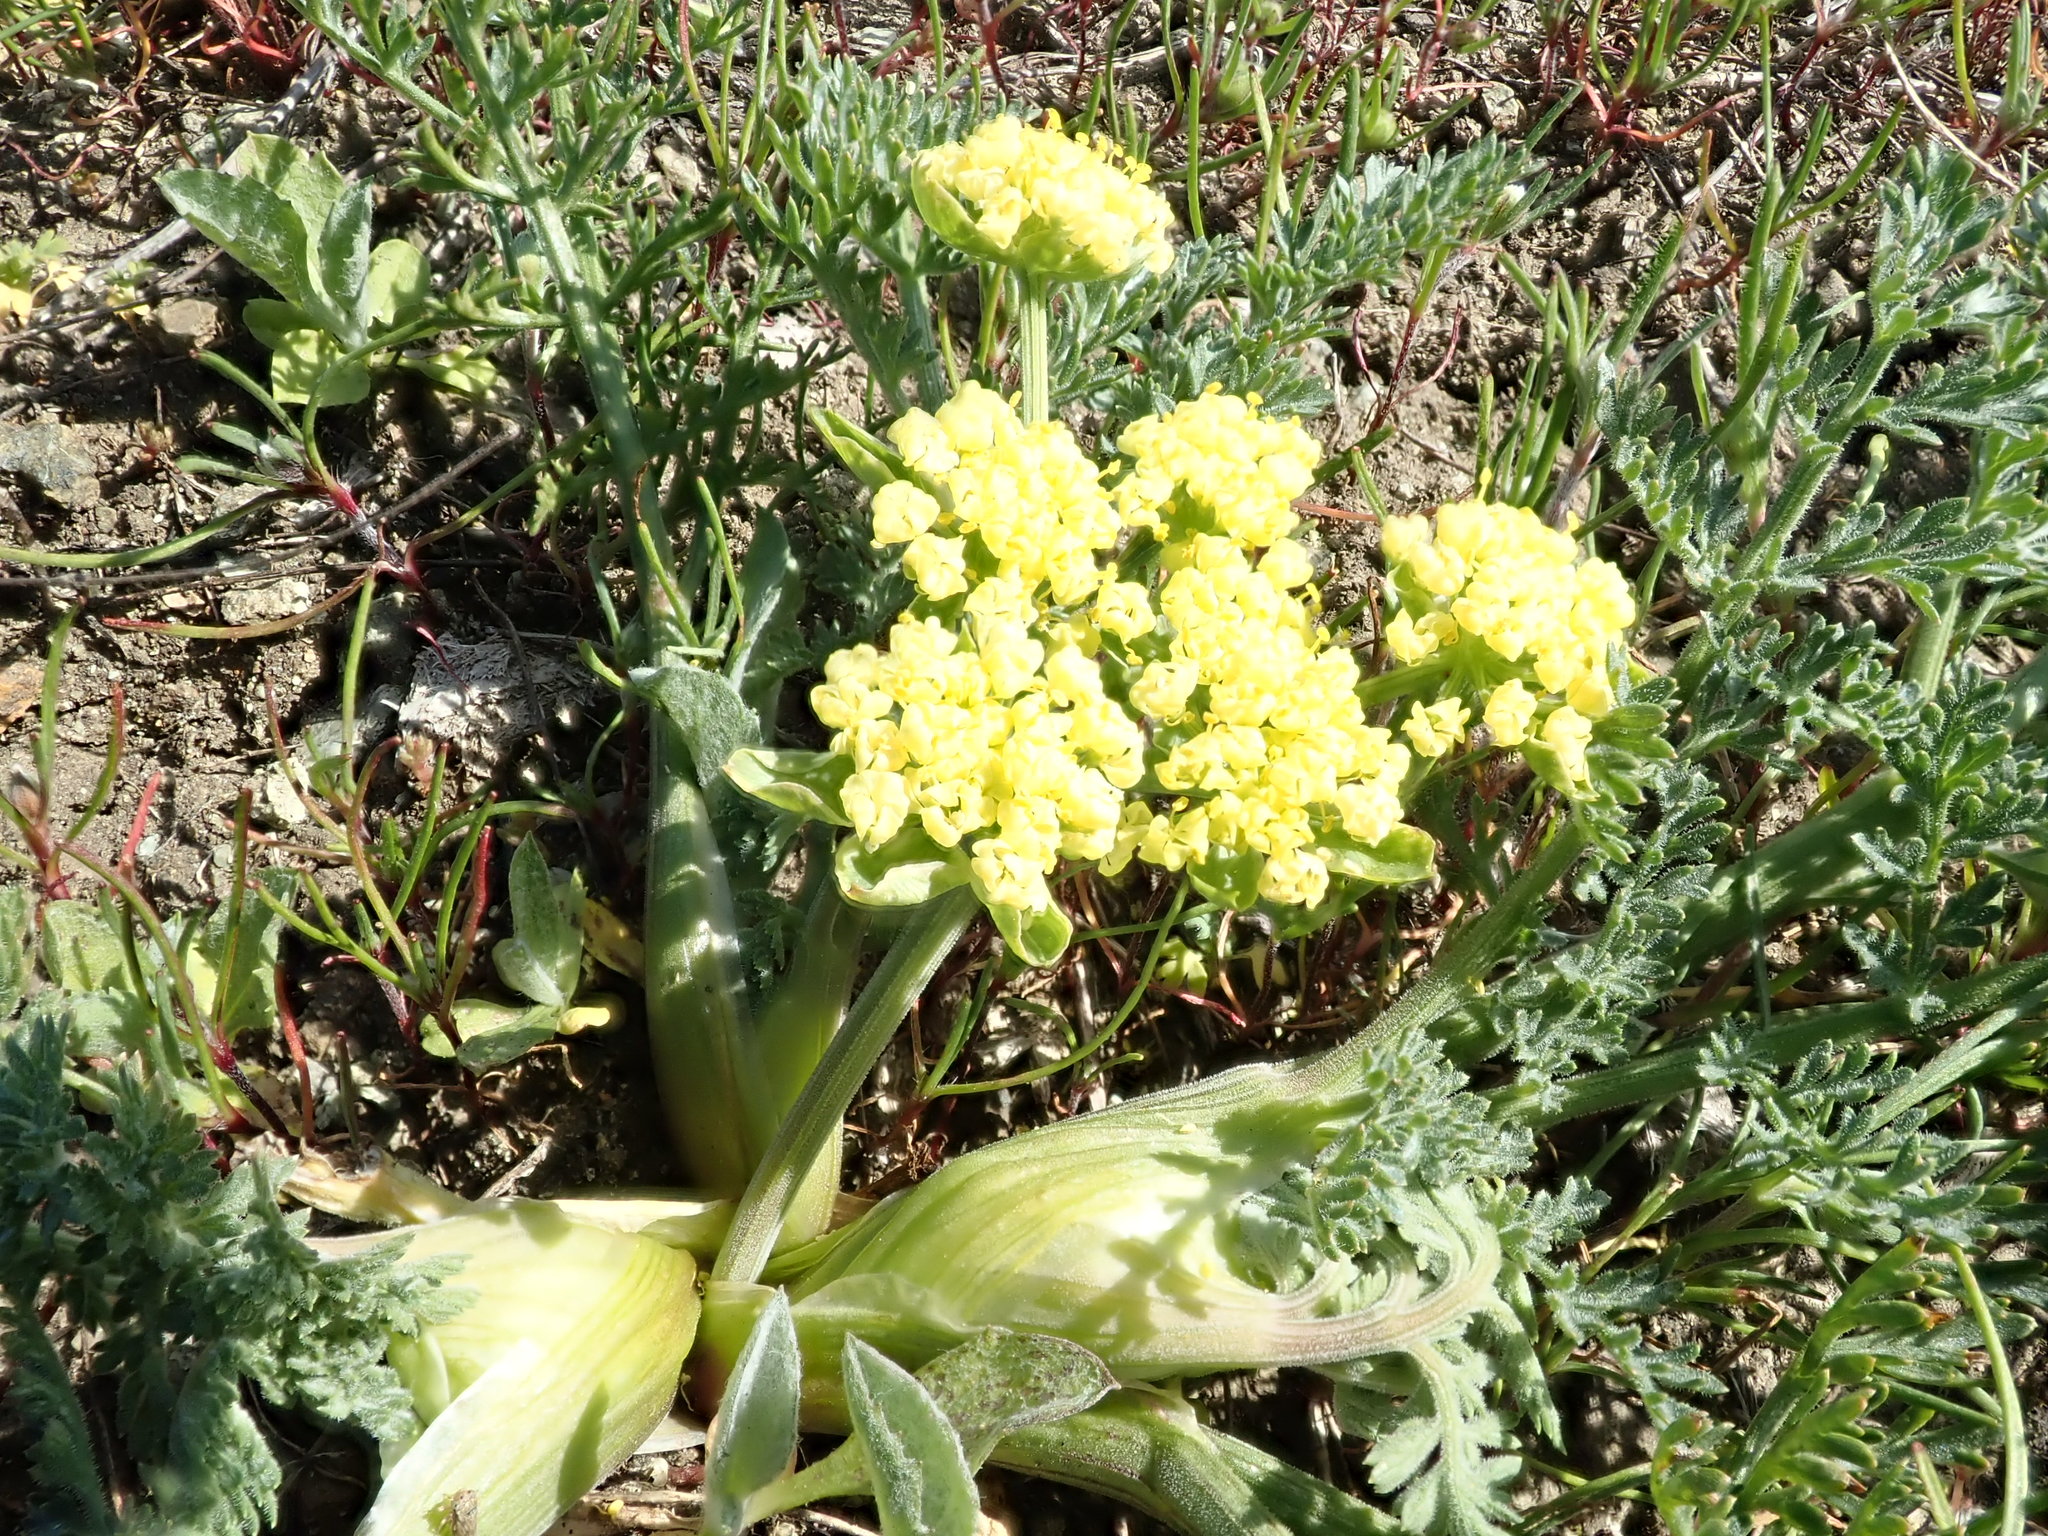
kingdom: Plantae
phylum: Tracheophyta
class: Magnoliopsida
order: Apiales
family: Apiaceae
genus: Lomatium
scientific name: Lomatium utriculatum
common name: Fine-leaf desert-parsley
